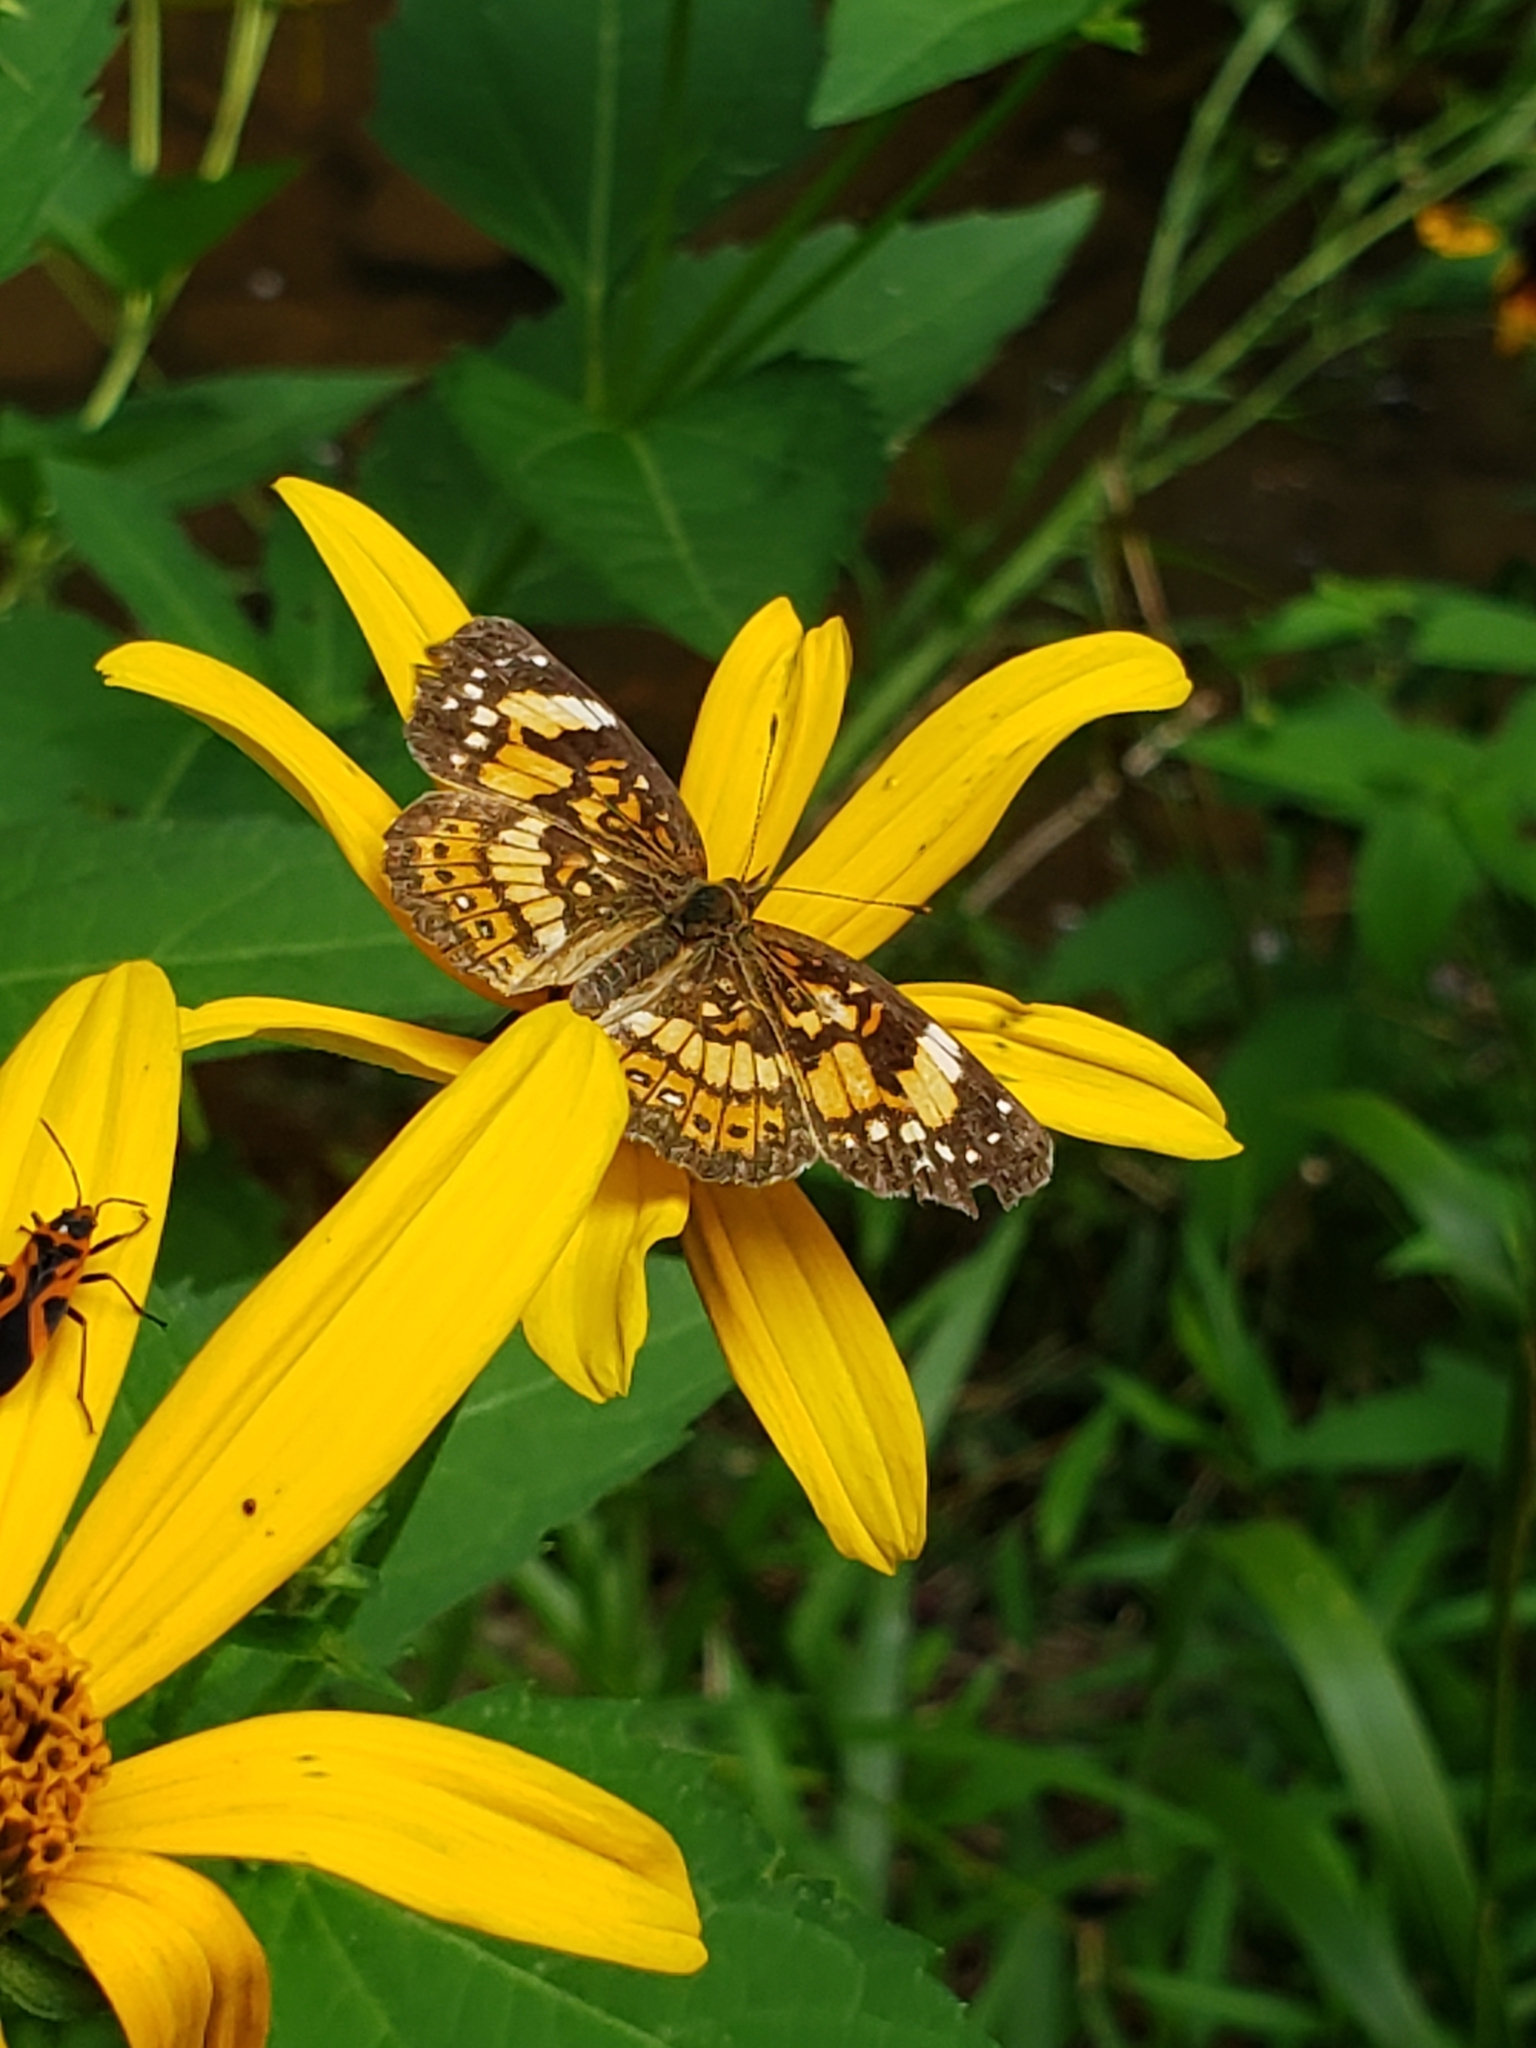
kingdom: Animalia
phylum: Arthropoda
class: Insecta
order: Lepidoptera
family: Nymphalidae
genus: Chlosyne
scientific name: Chlosyne nycteis
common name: Silvery checkerspot
